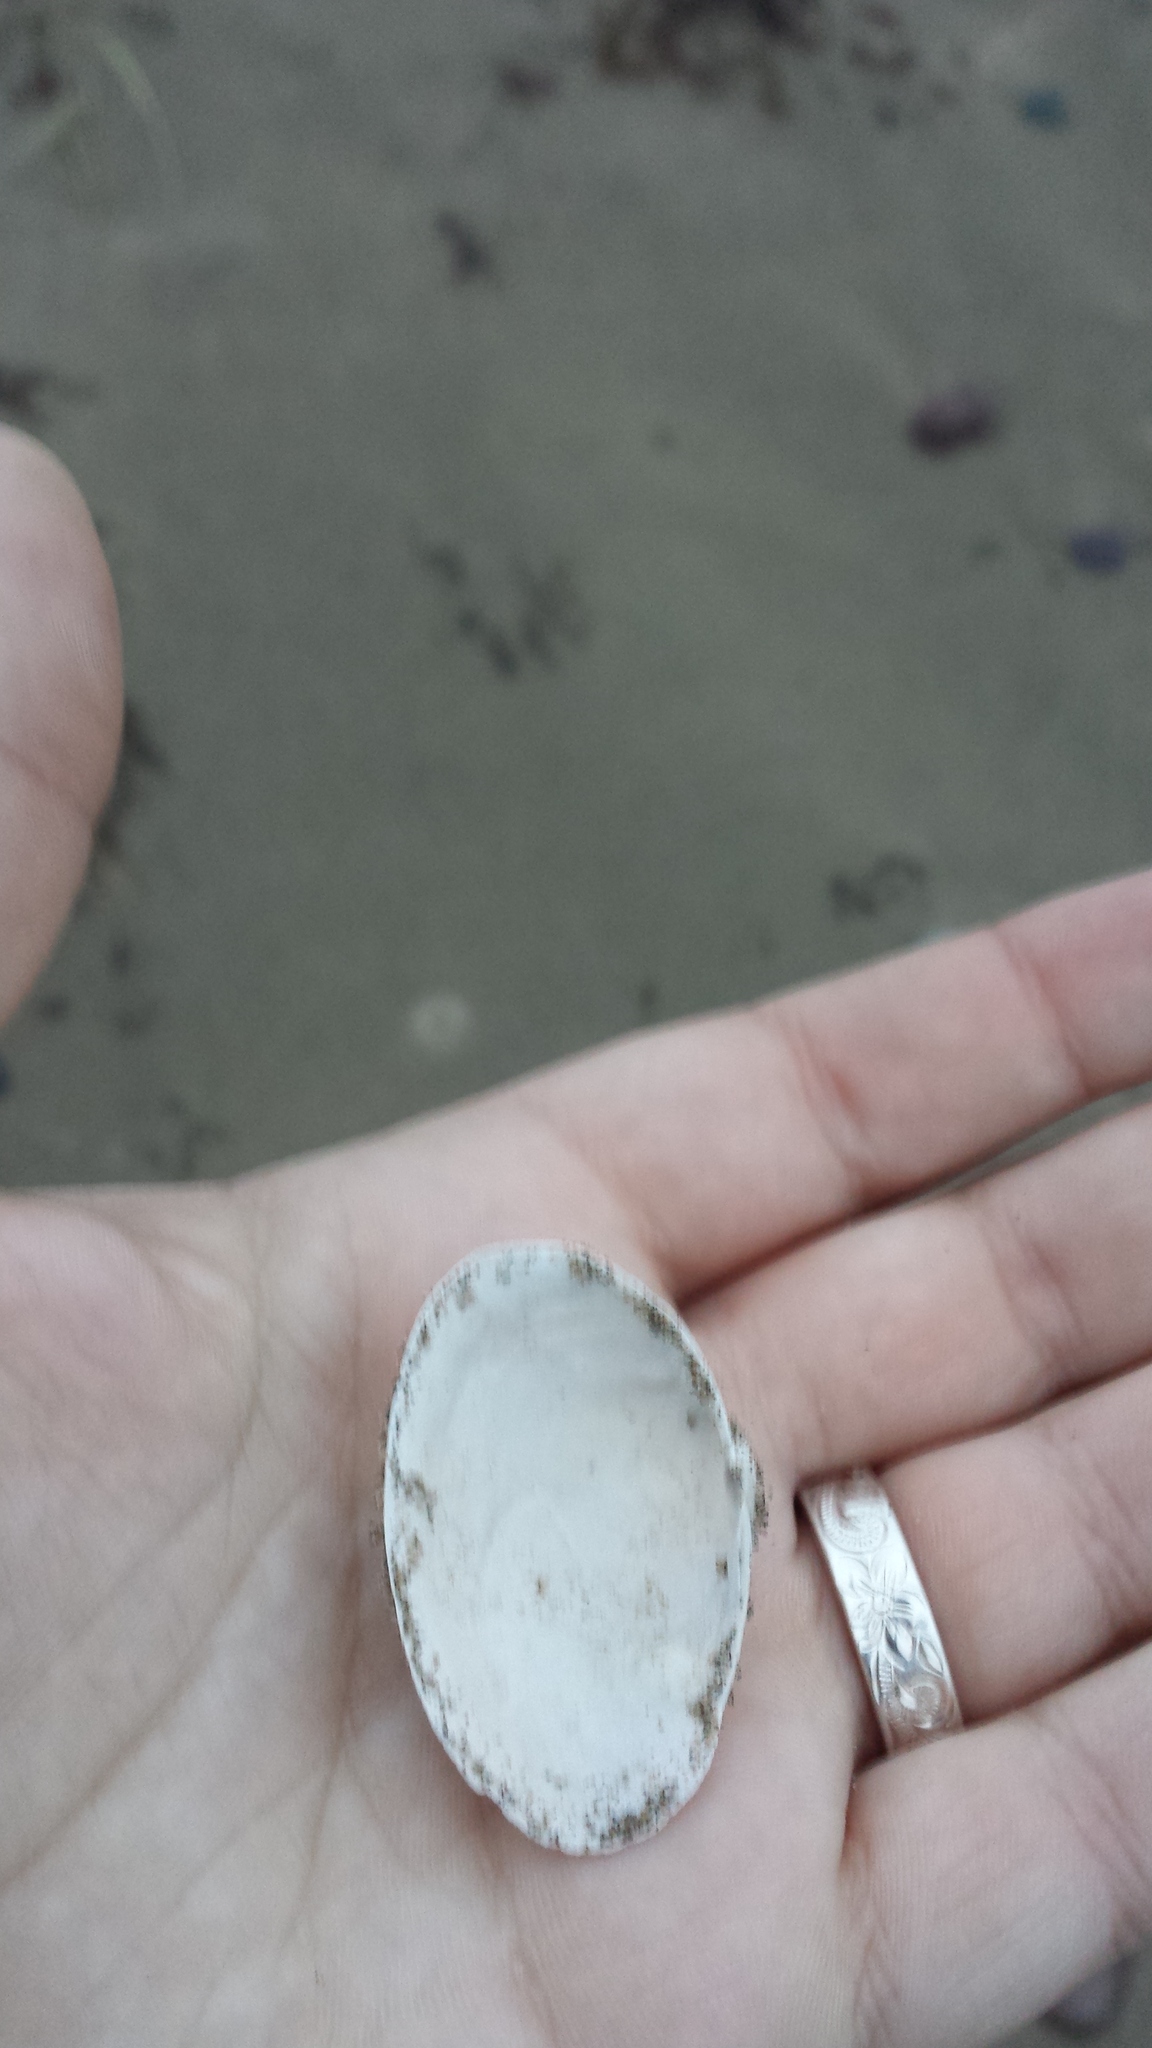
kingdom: Animalia
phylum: Mollusca
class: Bivalvia
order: Myida
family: Myidae
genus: Mya
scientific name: Mya arenaria
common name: Soft-shelled clam
